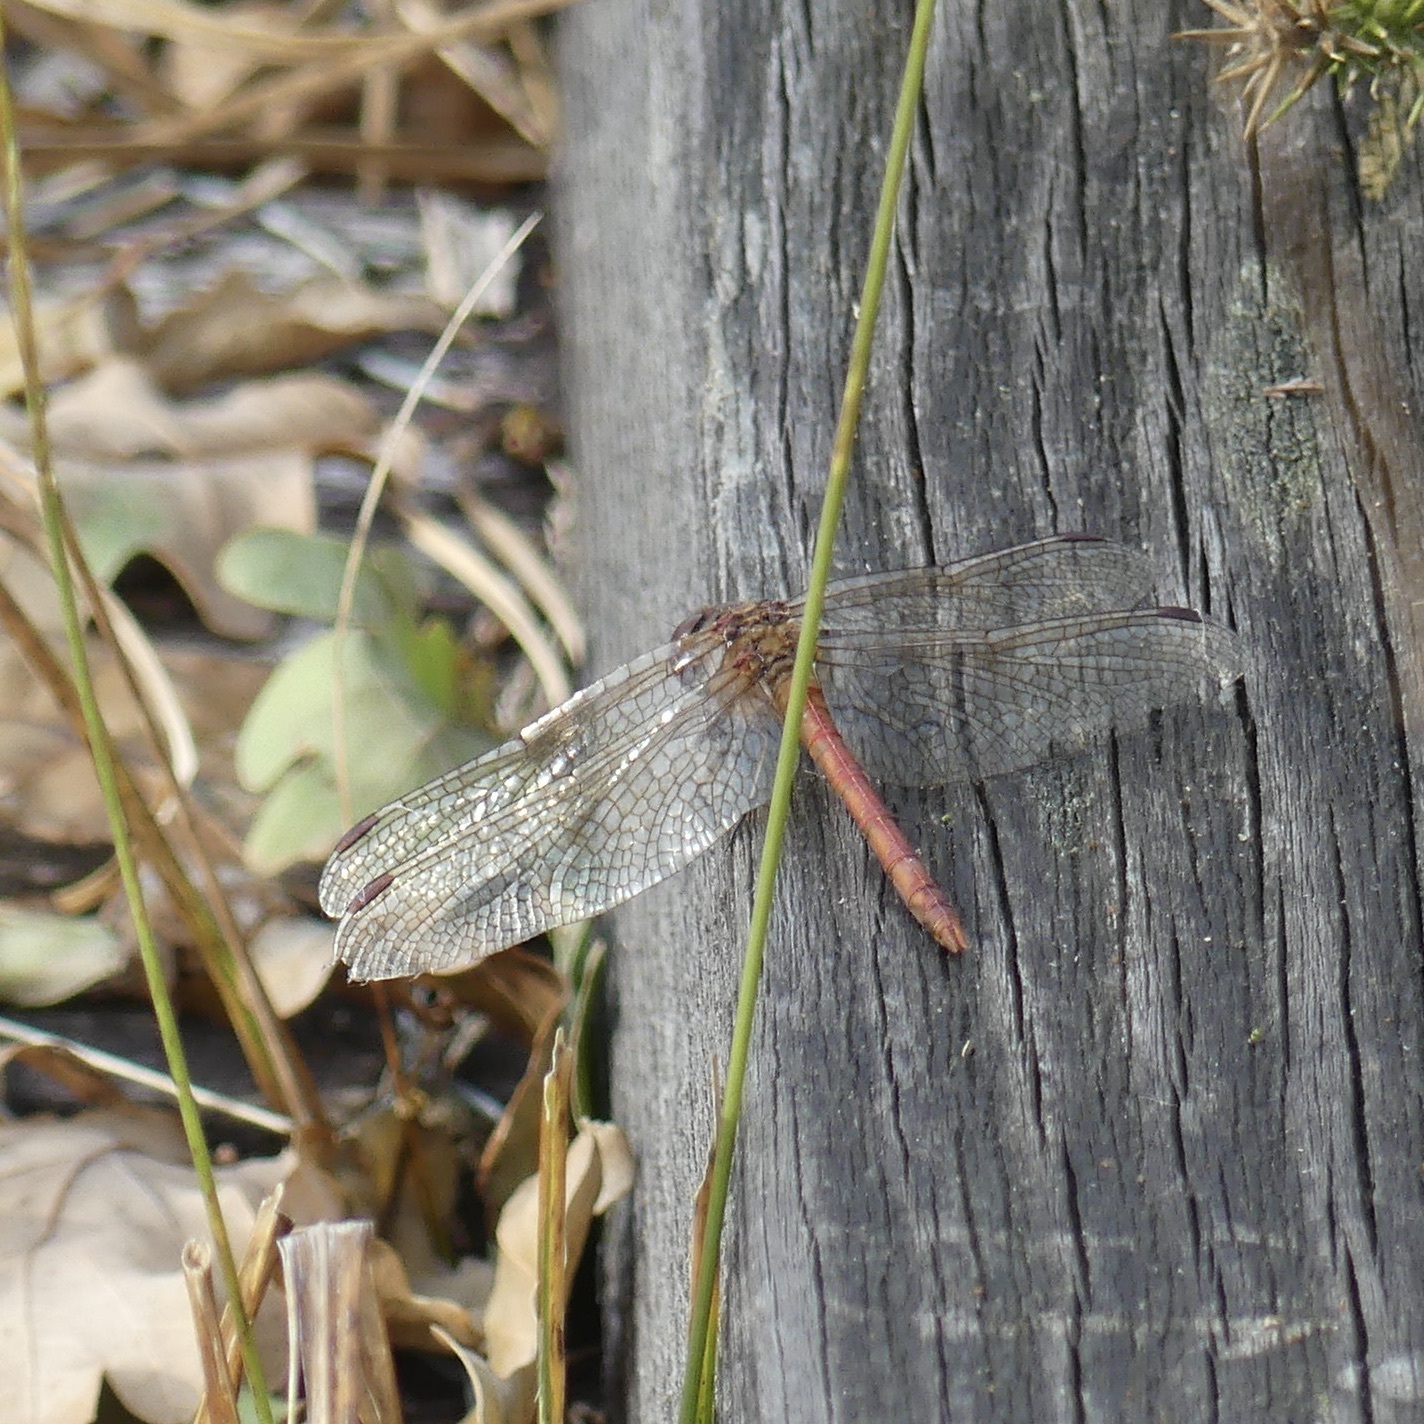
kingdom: Animalia
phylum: Arthropoda
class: Insecta
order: Odonata
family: Libellulidae
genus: Sympetrum
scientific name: Sympetrum striolatum
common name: Common darter
